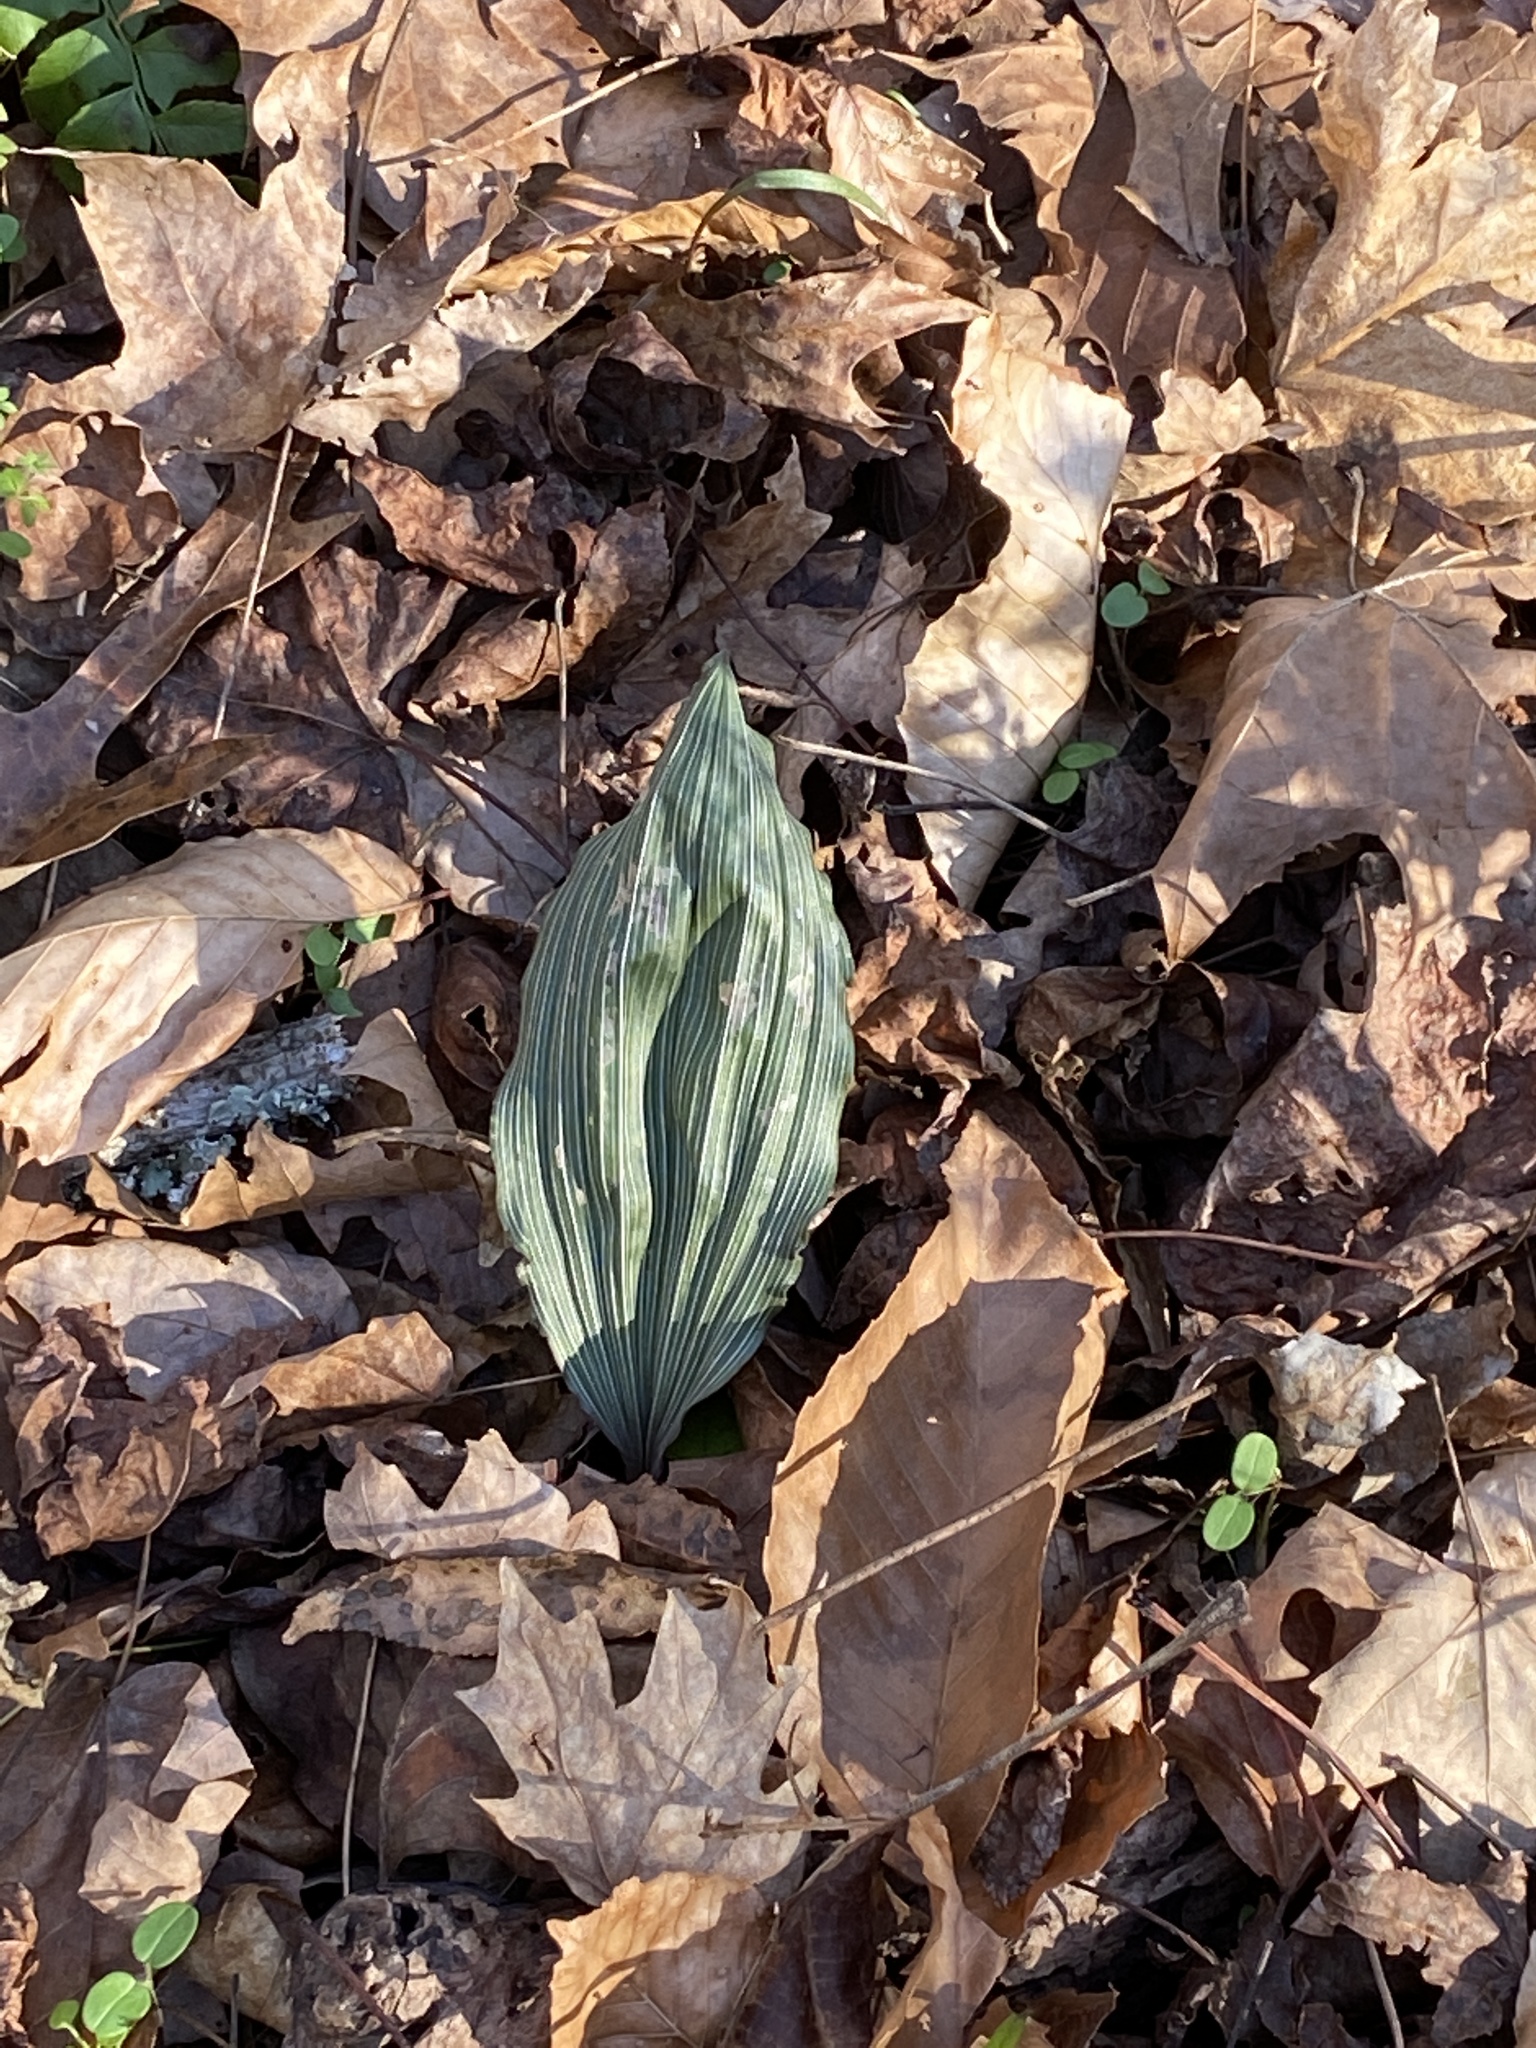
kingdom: Plantae
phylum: Tracheophyta
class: Liliopsida
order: Asparagales
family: Orchidaceae
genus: Aplectrum
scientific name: Aplectrum hyemale
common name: Adam-and-eve
